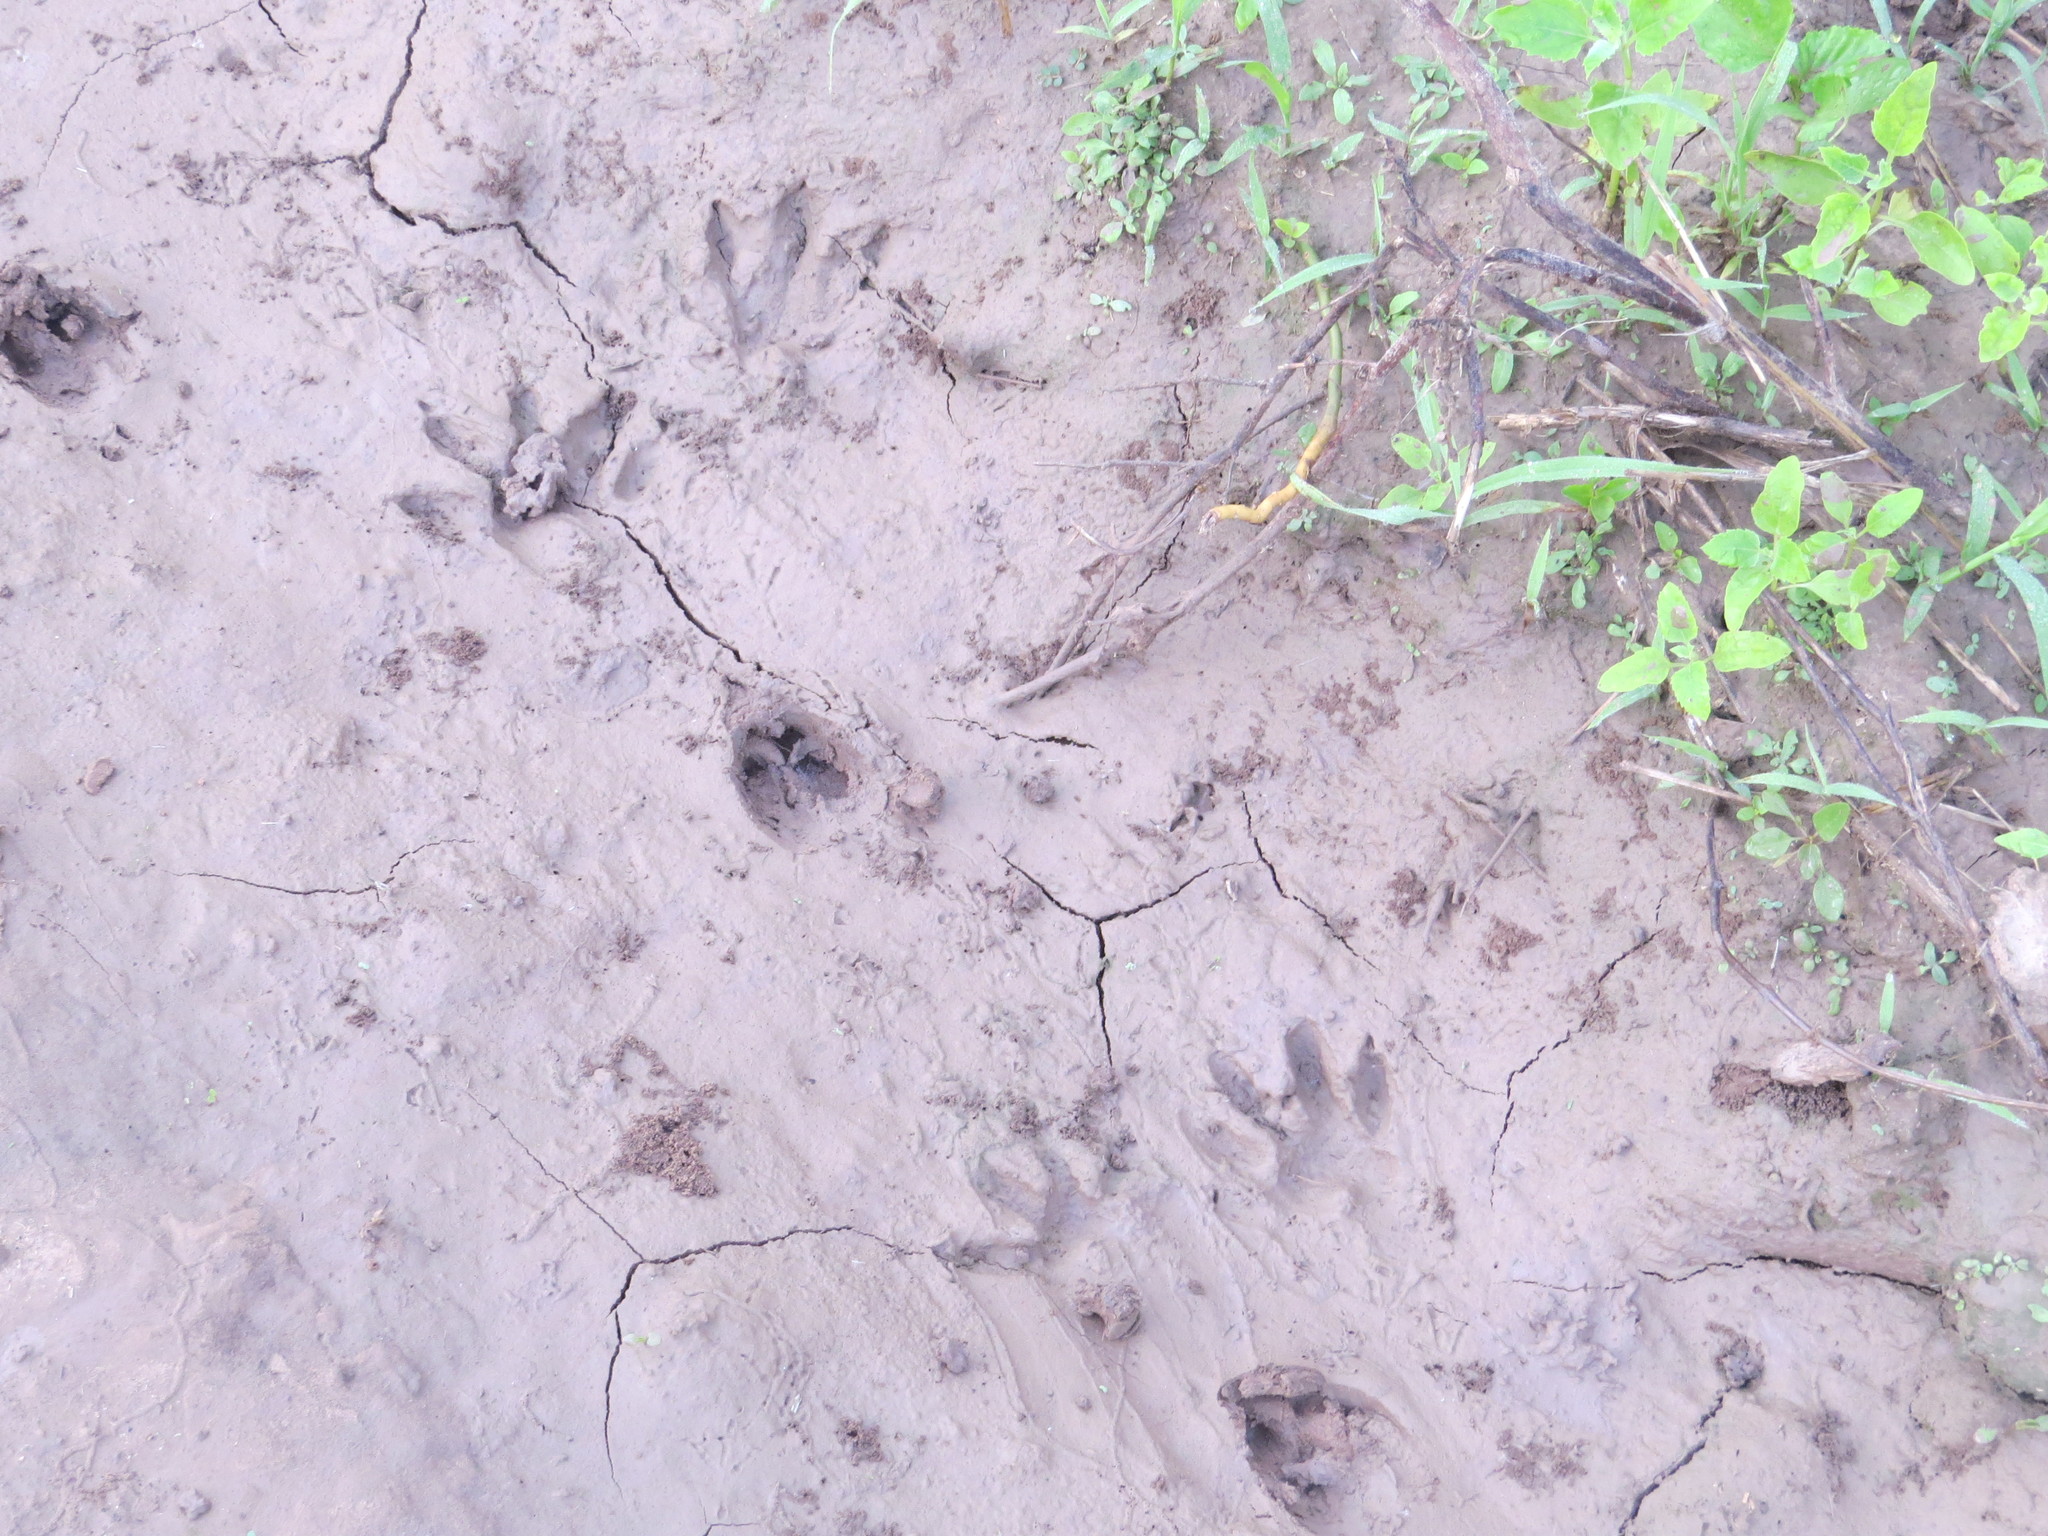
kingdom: Animalia
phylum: Chordata
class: Mammalia
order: Carnivora
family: Procyonidae
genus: Procyon
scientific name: Procyon cancrivorus
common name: Crab-eating raccoon
